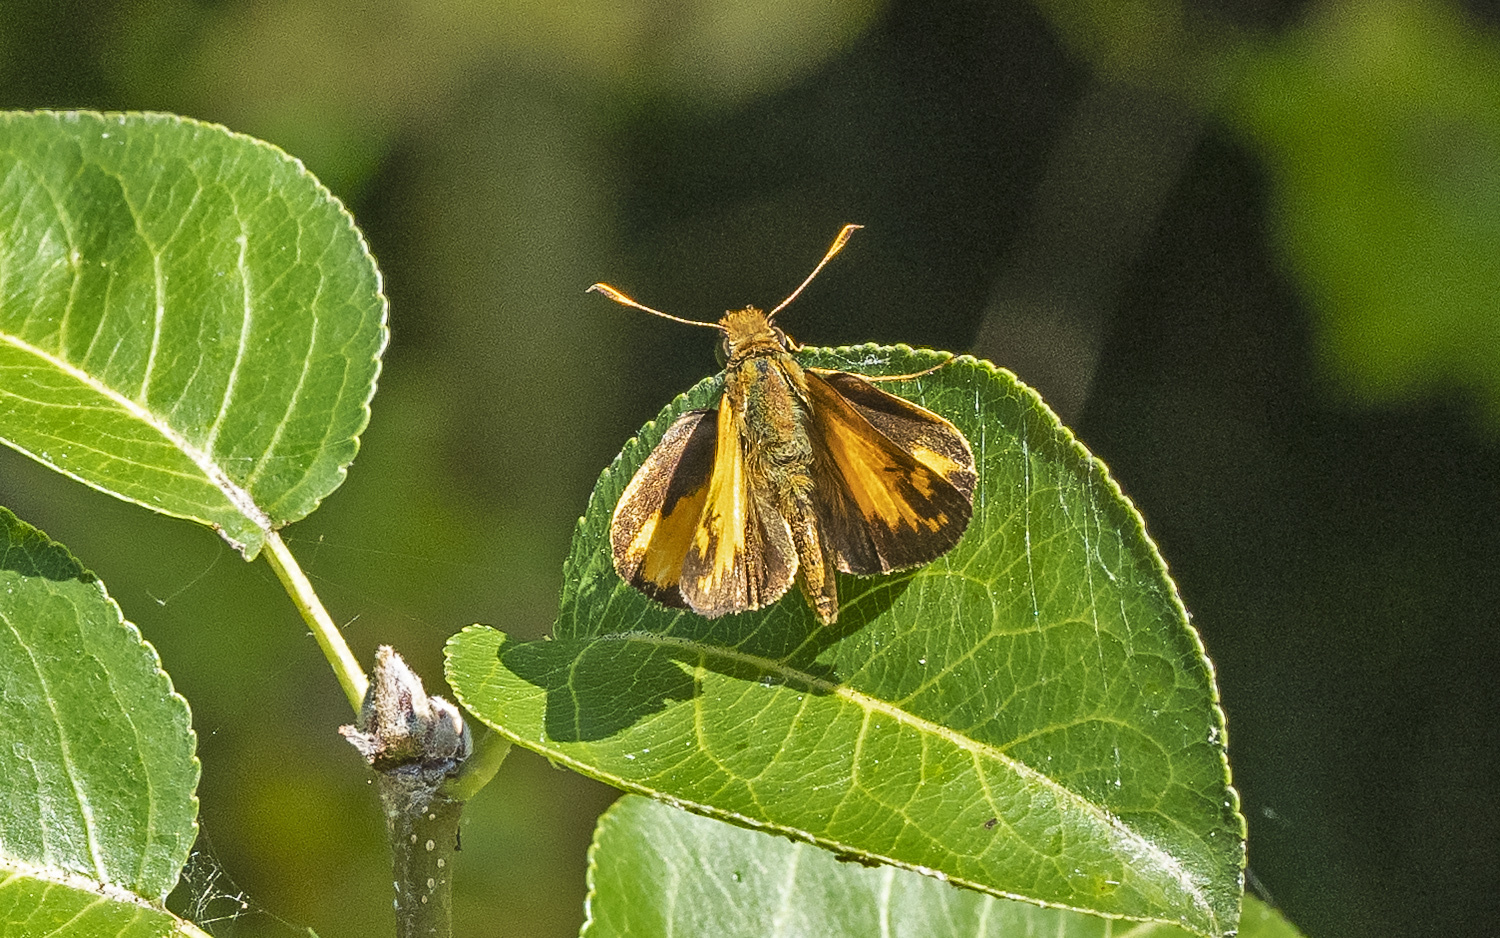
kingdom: Animalia
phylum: Arthropoda
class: Insecta
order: Lepidoptera
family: Hesperiidae
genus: Lon
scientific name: Lon zabulon
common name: Zabulon skipper
